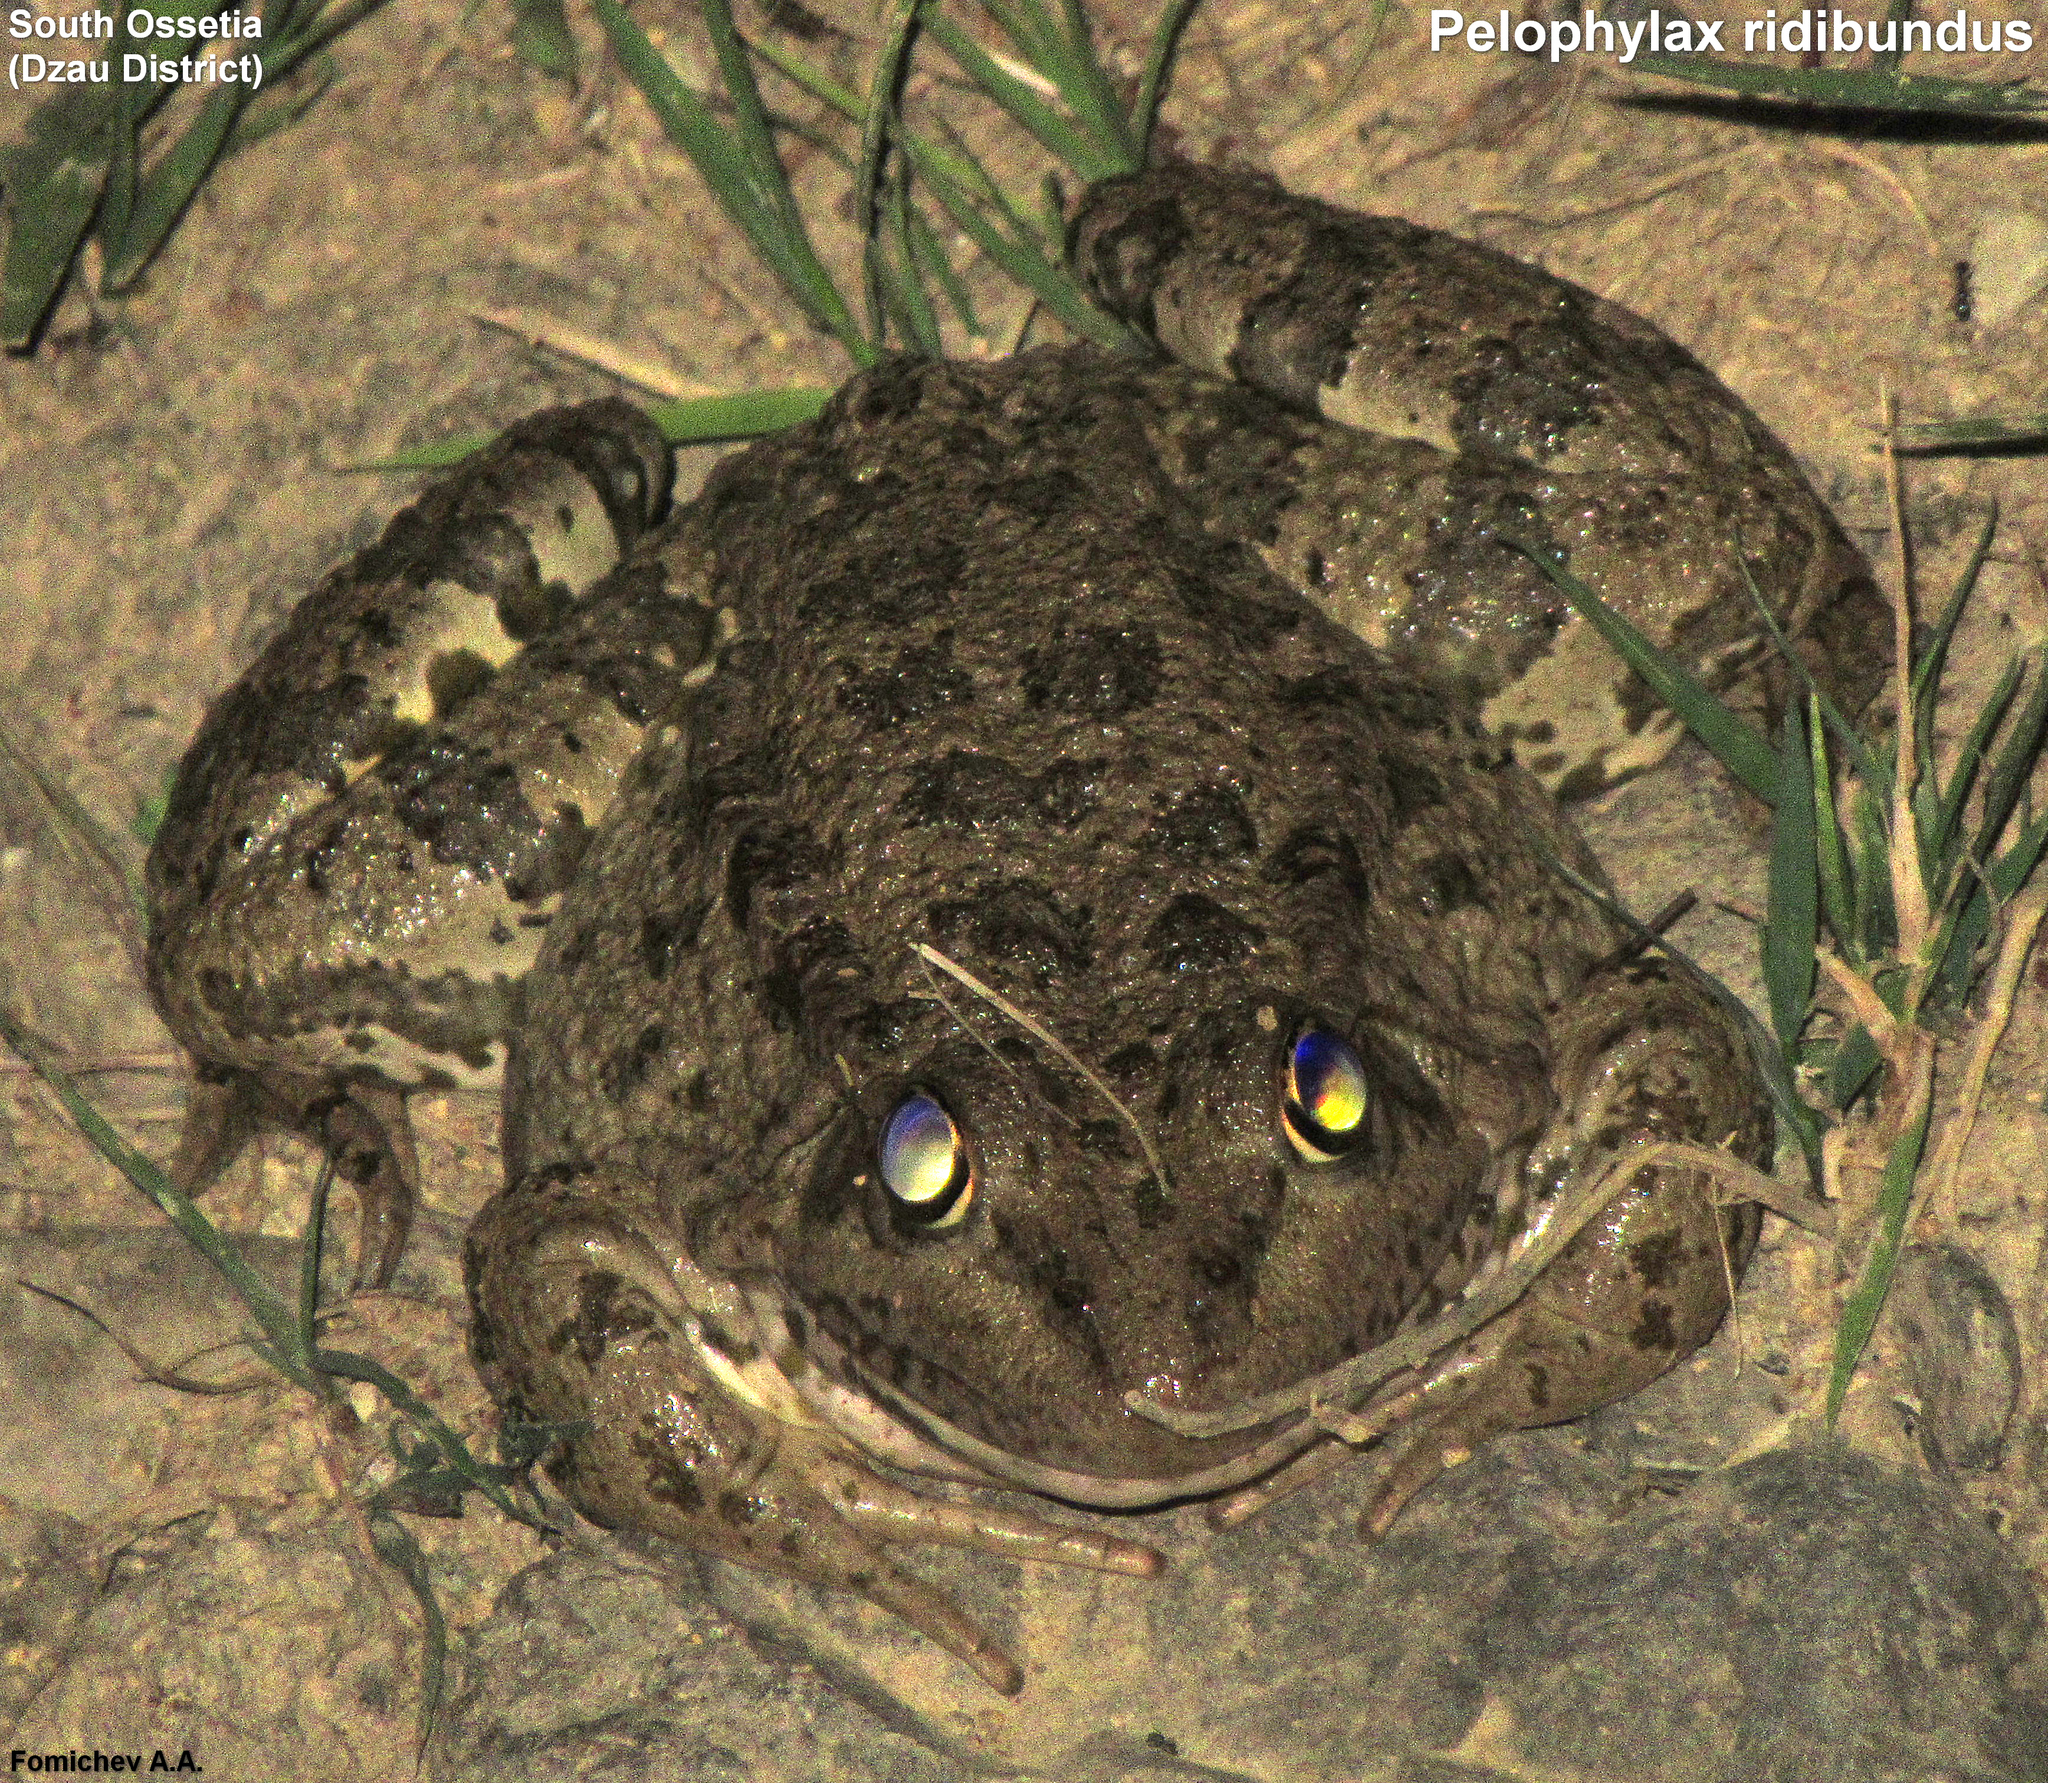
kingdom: Animalia
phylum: Chordata
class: Amphibia
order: Anura
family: Ranidae
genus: Pelophylax
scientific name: Pelophylax ridibundus
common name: Marsh frog
